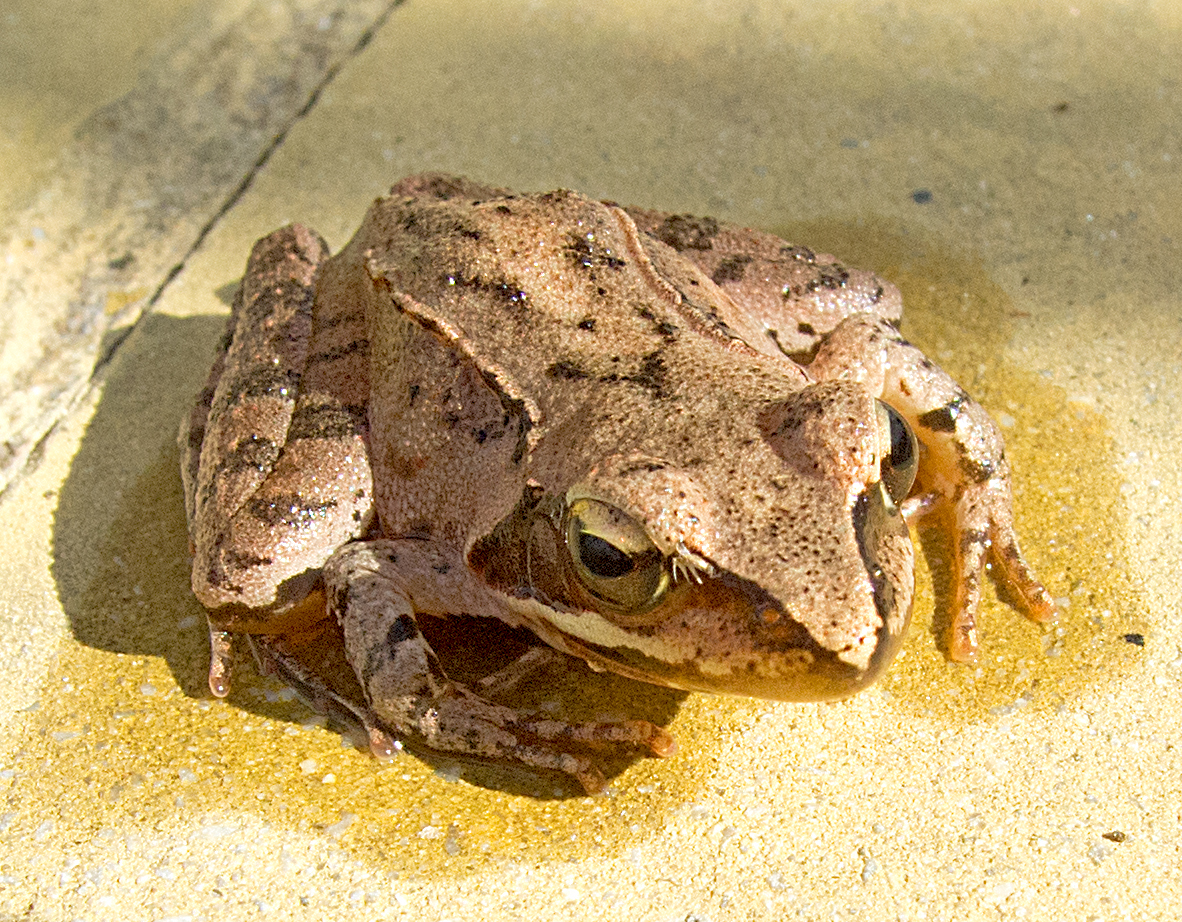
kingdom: Animalia
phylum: Chordata
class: Amphibia
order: Anura
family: Ranidae
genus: Rana
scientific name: Rana dalmatina
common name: Agile frog
